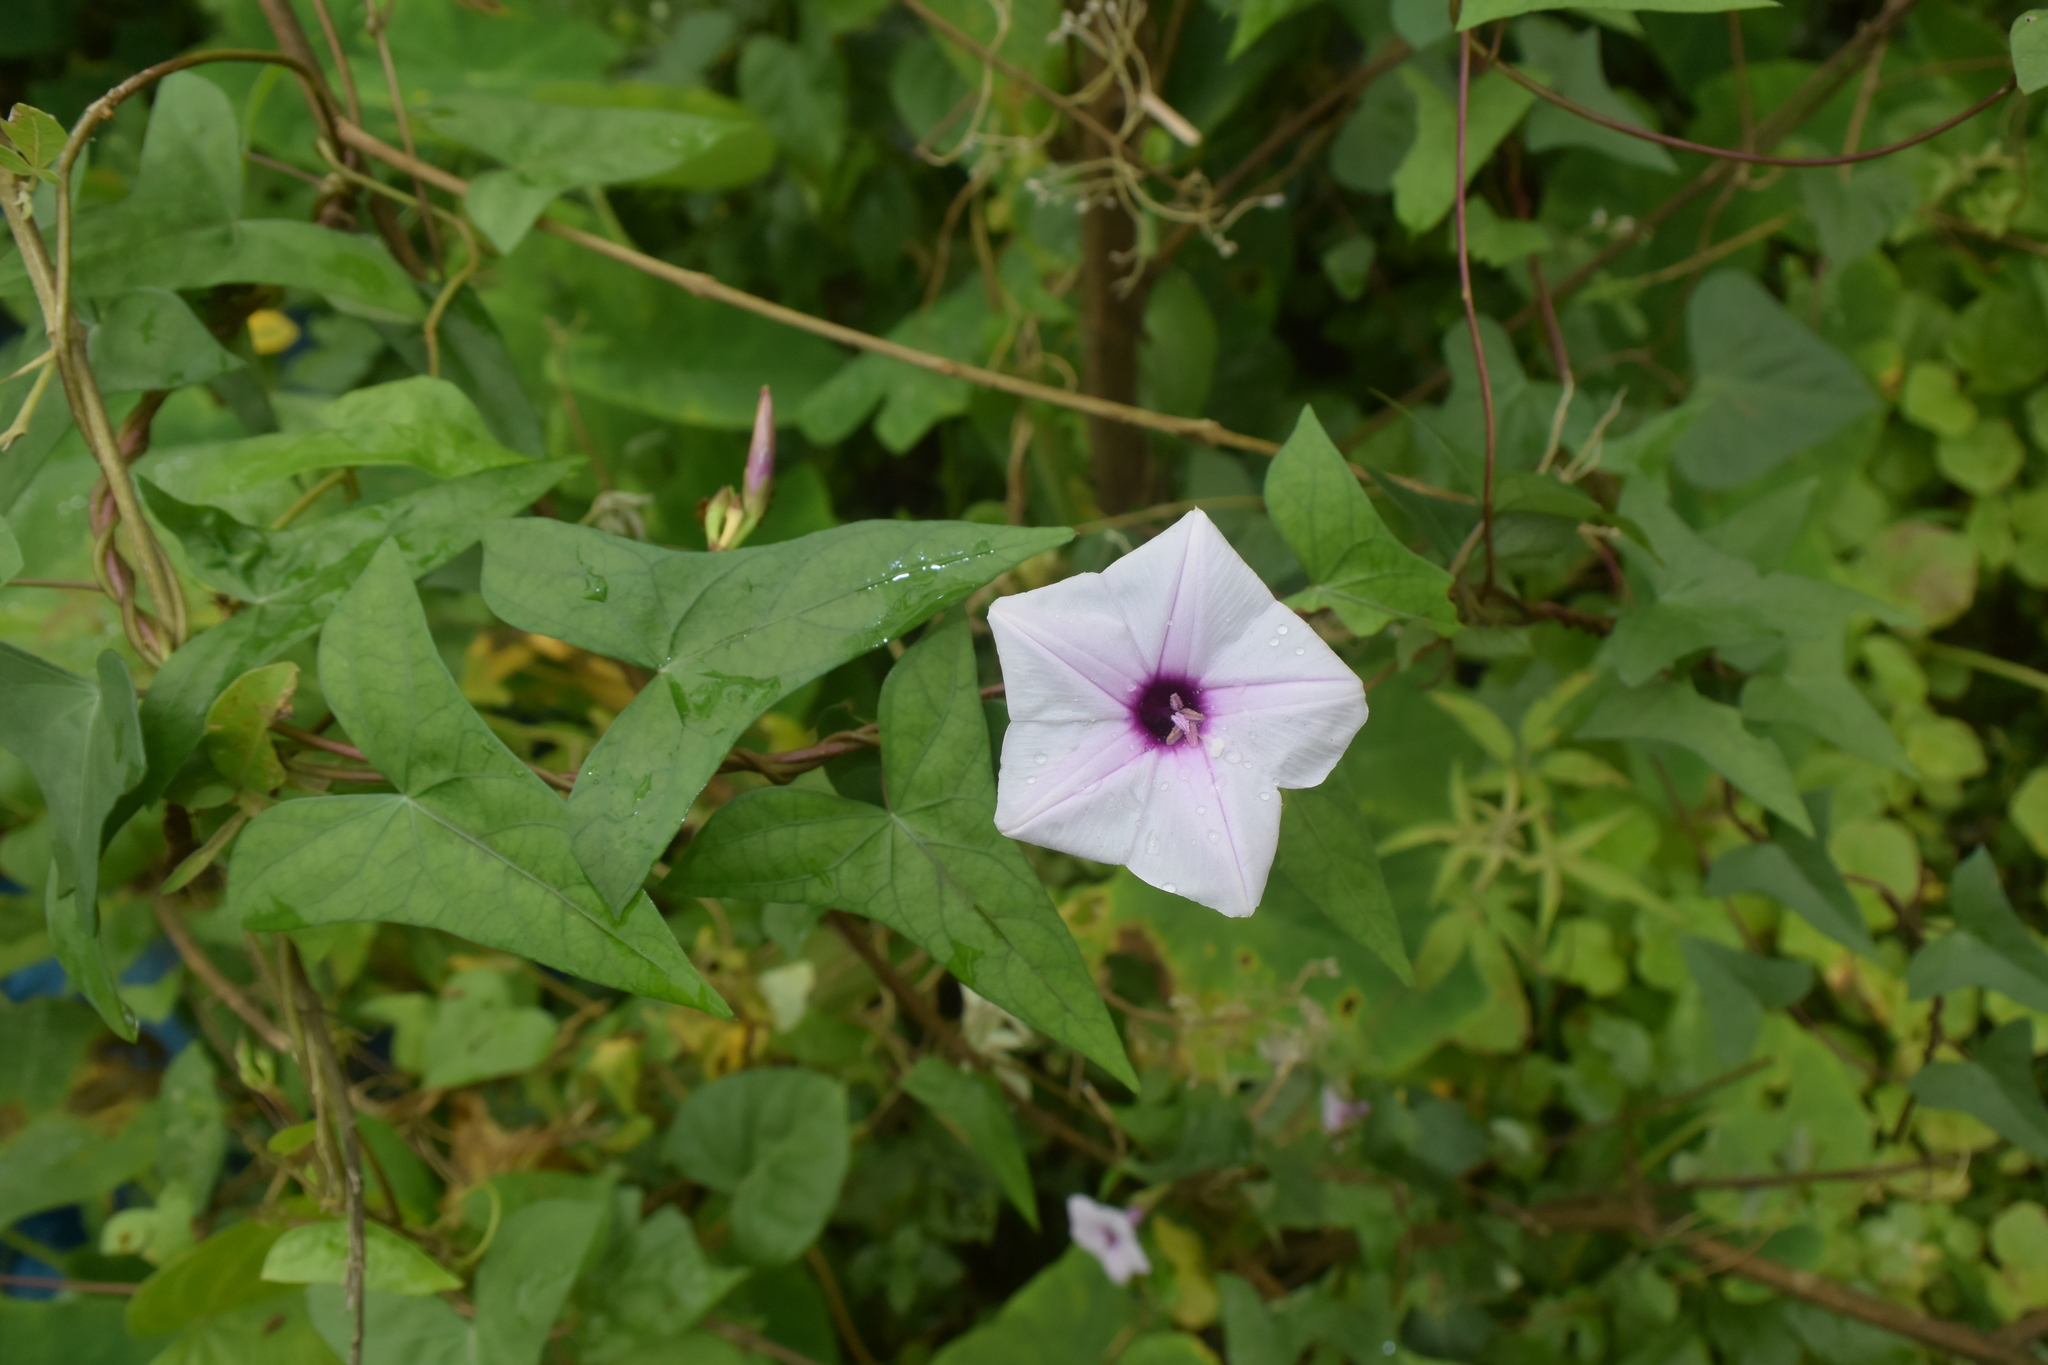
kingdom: Plantae
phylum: Tracheophyta
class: Magnoliopsida
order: Solanales
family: Convolvulaceae
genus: Ipomoea
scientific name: Ipomoea sagittifolia
